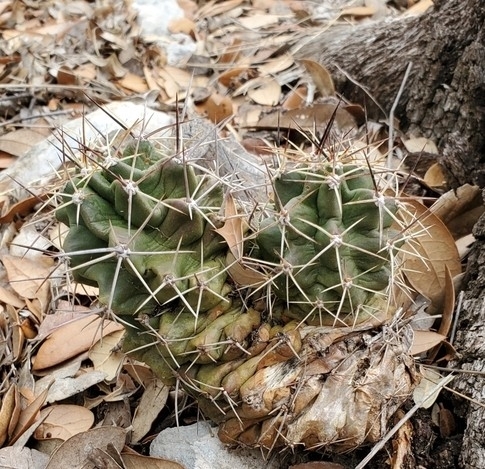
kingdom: Plantae
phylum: Tracheophyta
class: Magnoliopsida
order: Caryophyllales
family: Cactaceae
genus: Echinocereus
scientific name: Echinocereus coccineus
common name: Scarlet hedgehog cactus
